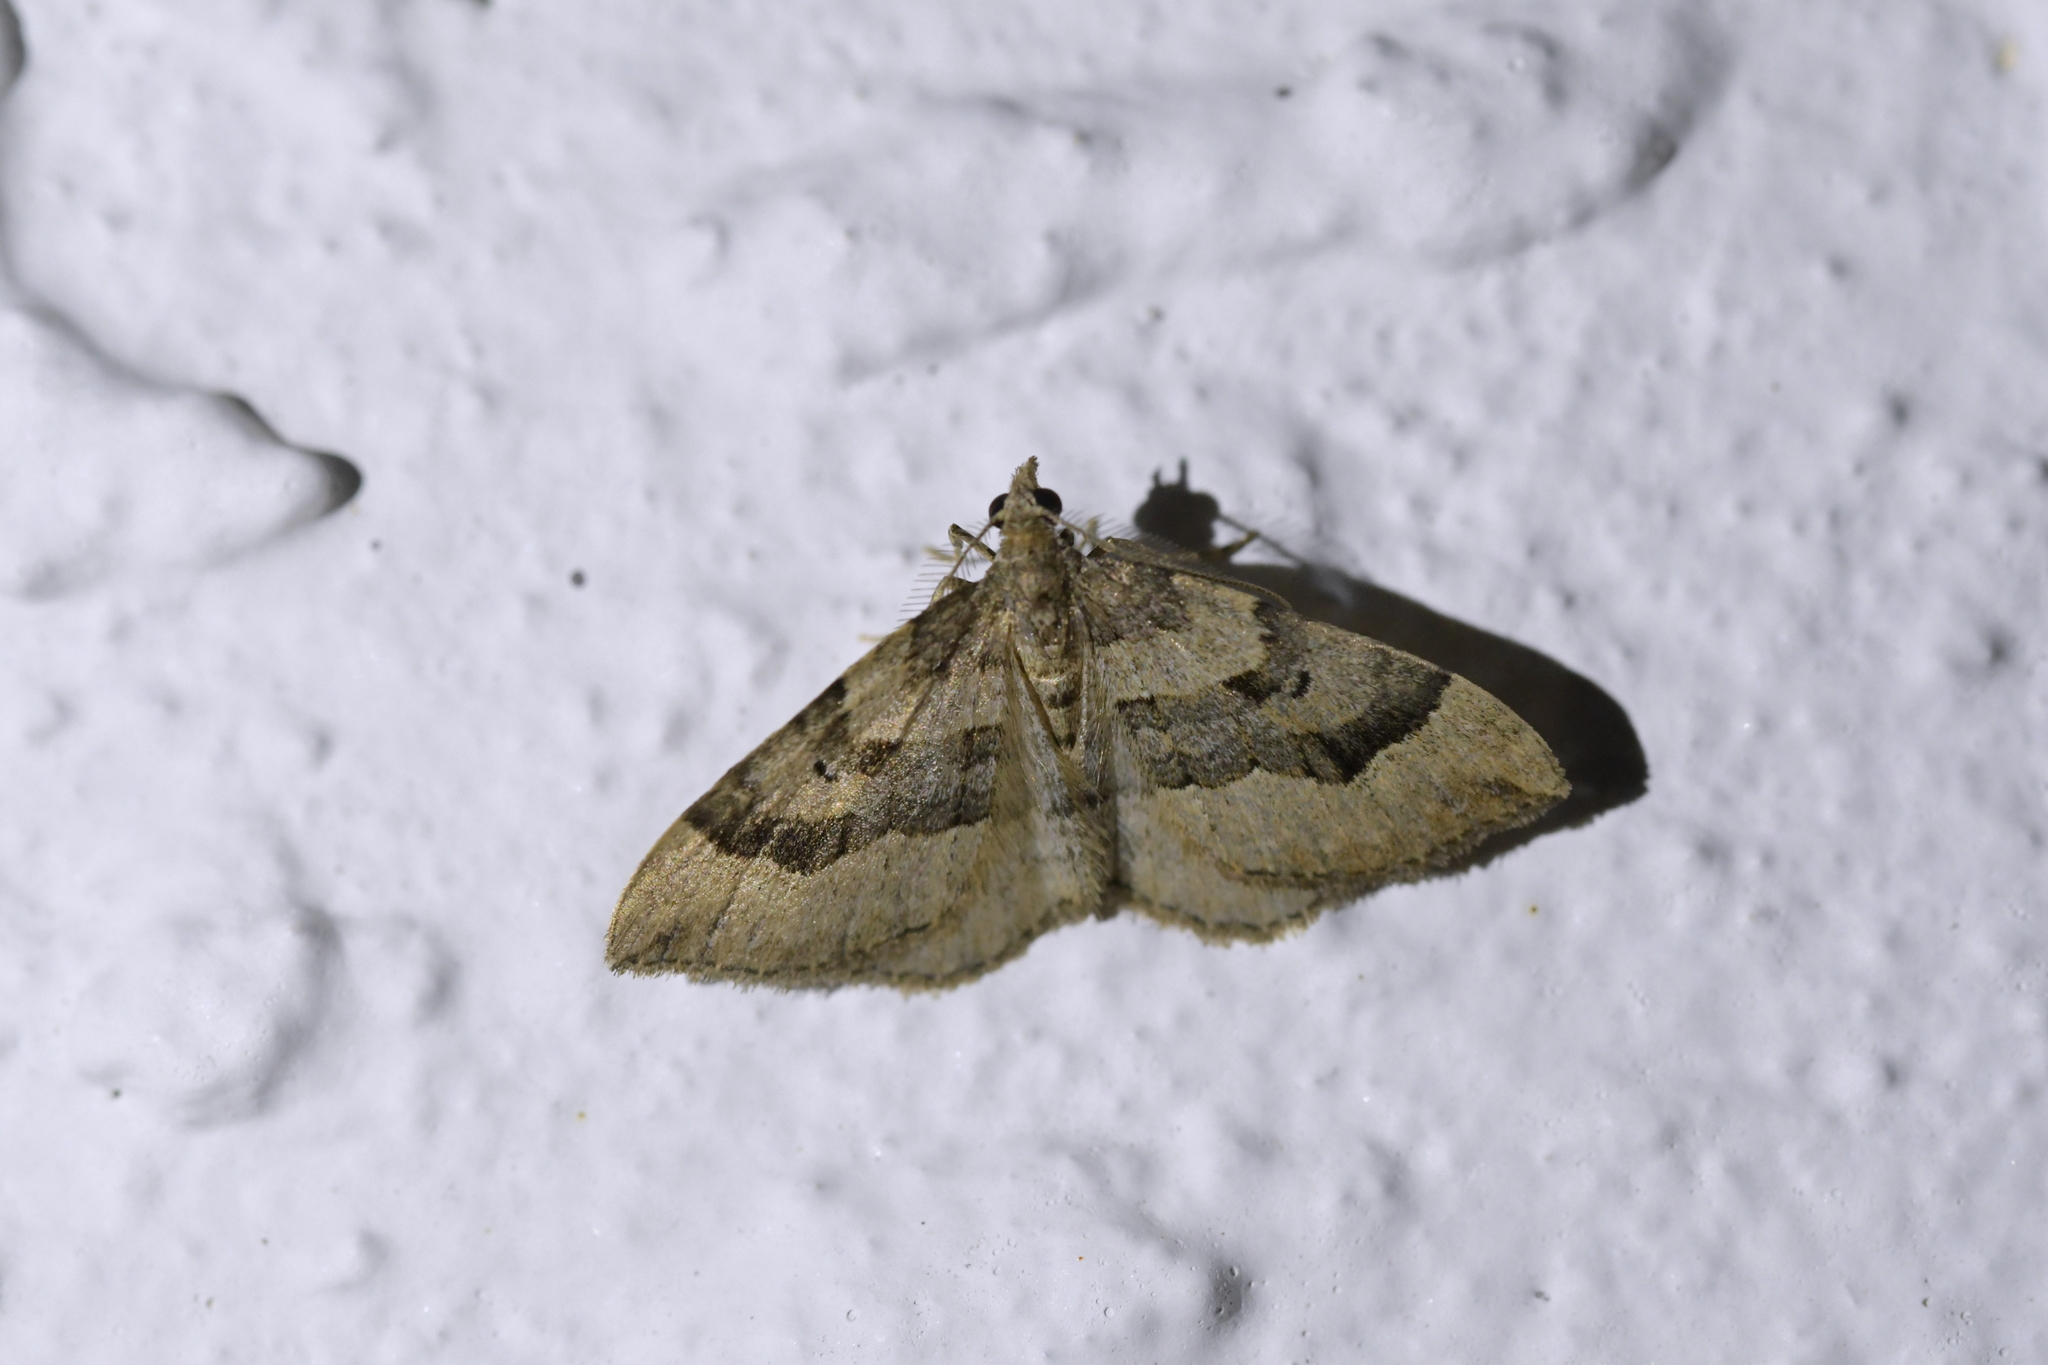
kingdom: Animalia
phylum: Arthropoda
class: Insecta
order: Lepidoptera
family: Geometridae
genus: Epyaxa
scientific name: Epyaxa rosearia
